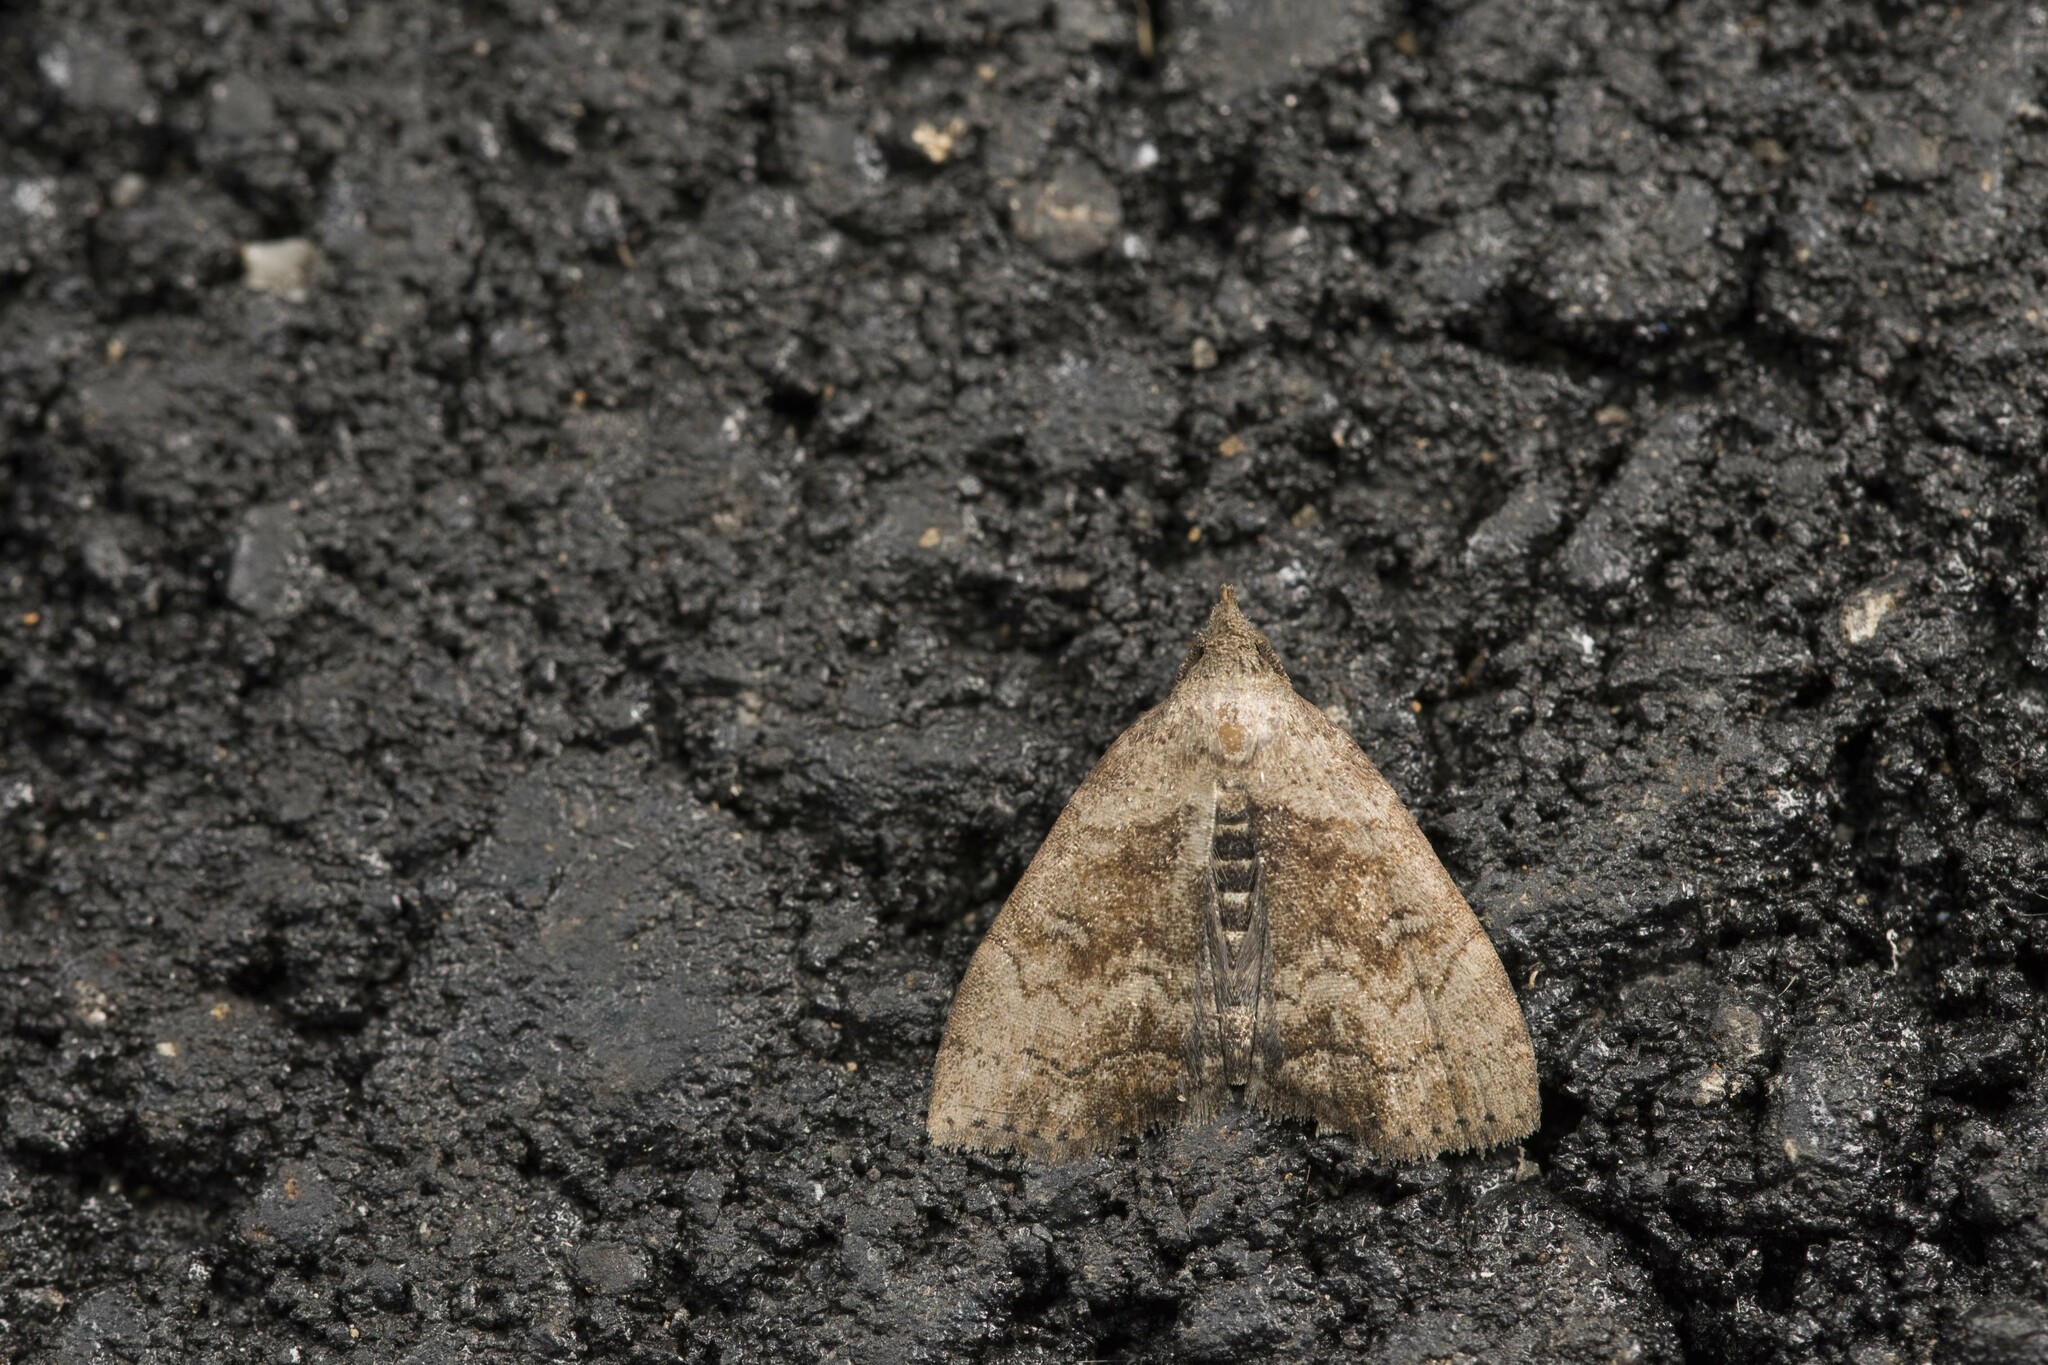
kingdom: Animalia
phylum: Arthropoda
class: Insecta
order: Lepidoptera
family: Erebidae
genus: Polypogon
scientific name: Polypogon kurokoi
